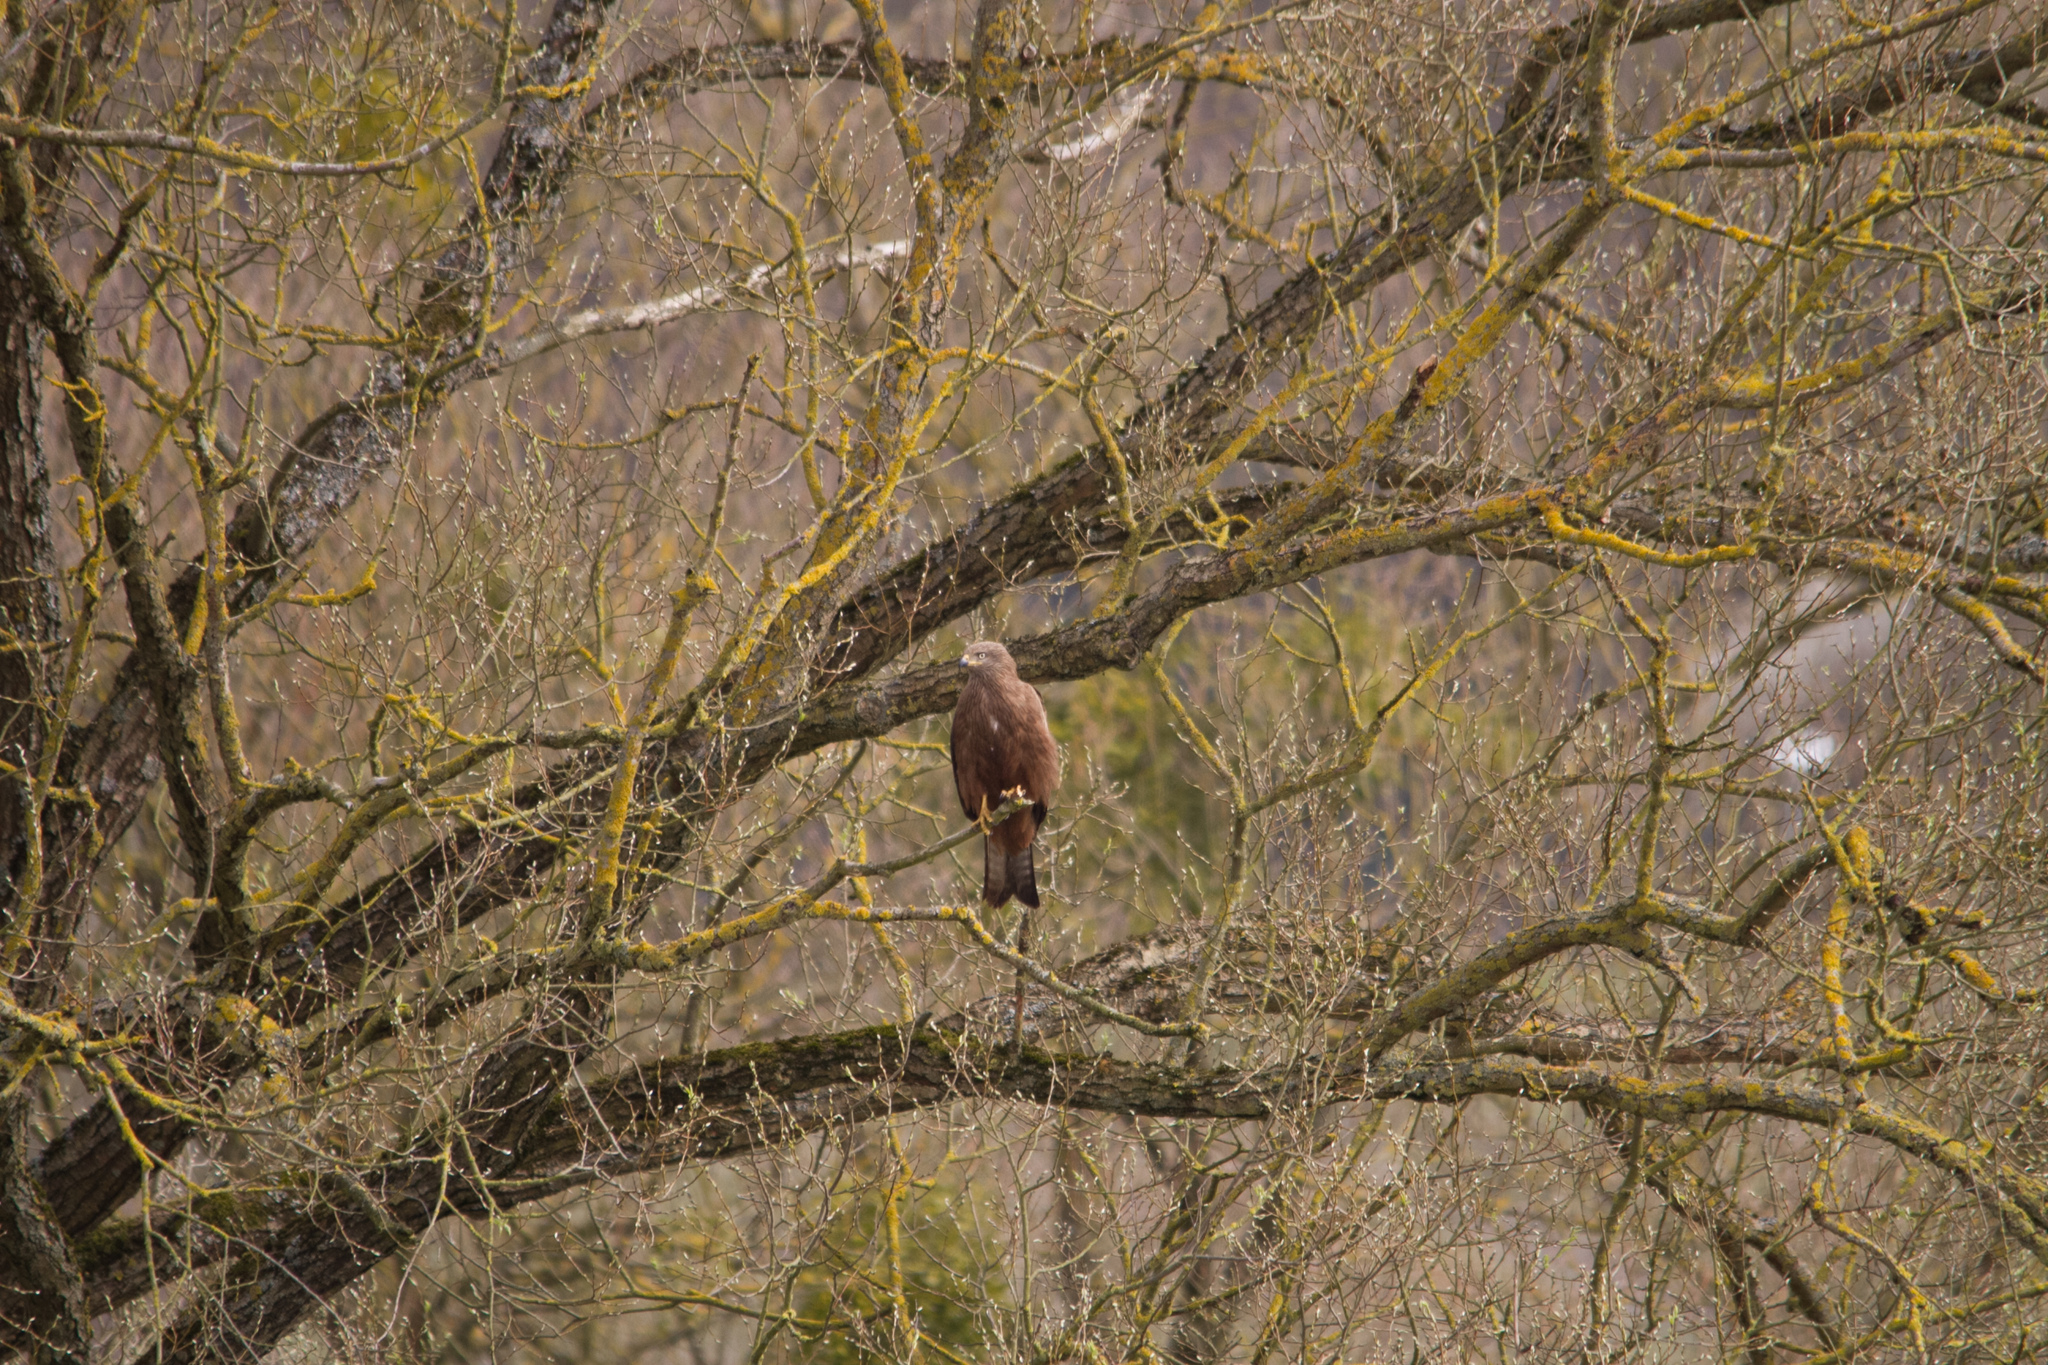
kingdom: Animalia
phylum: Chordata
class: Aves
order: Accipitriformes
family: Accipitridae
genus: Milvus
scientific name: Milvus milvus
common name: Red kite
